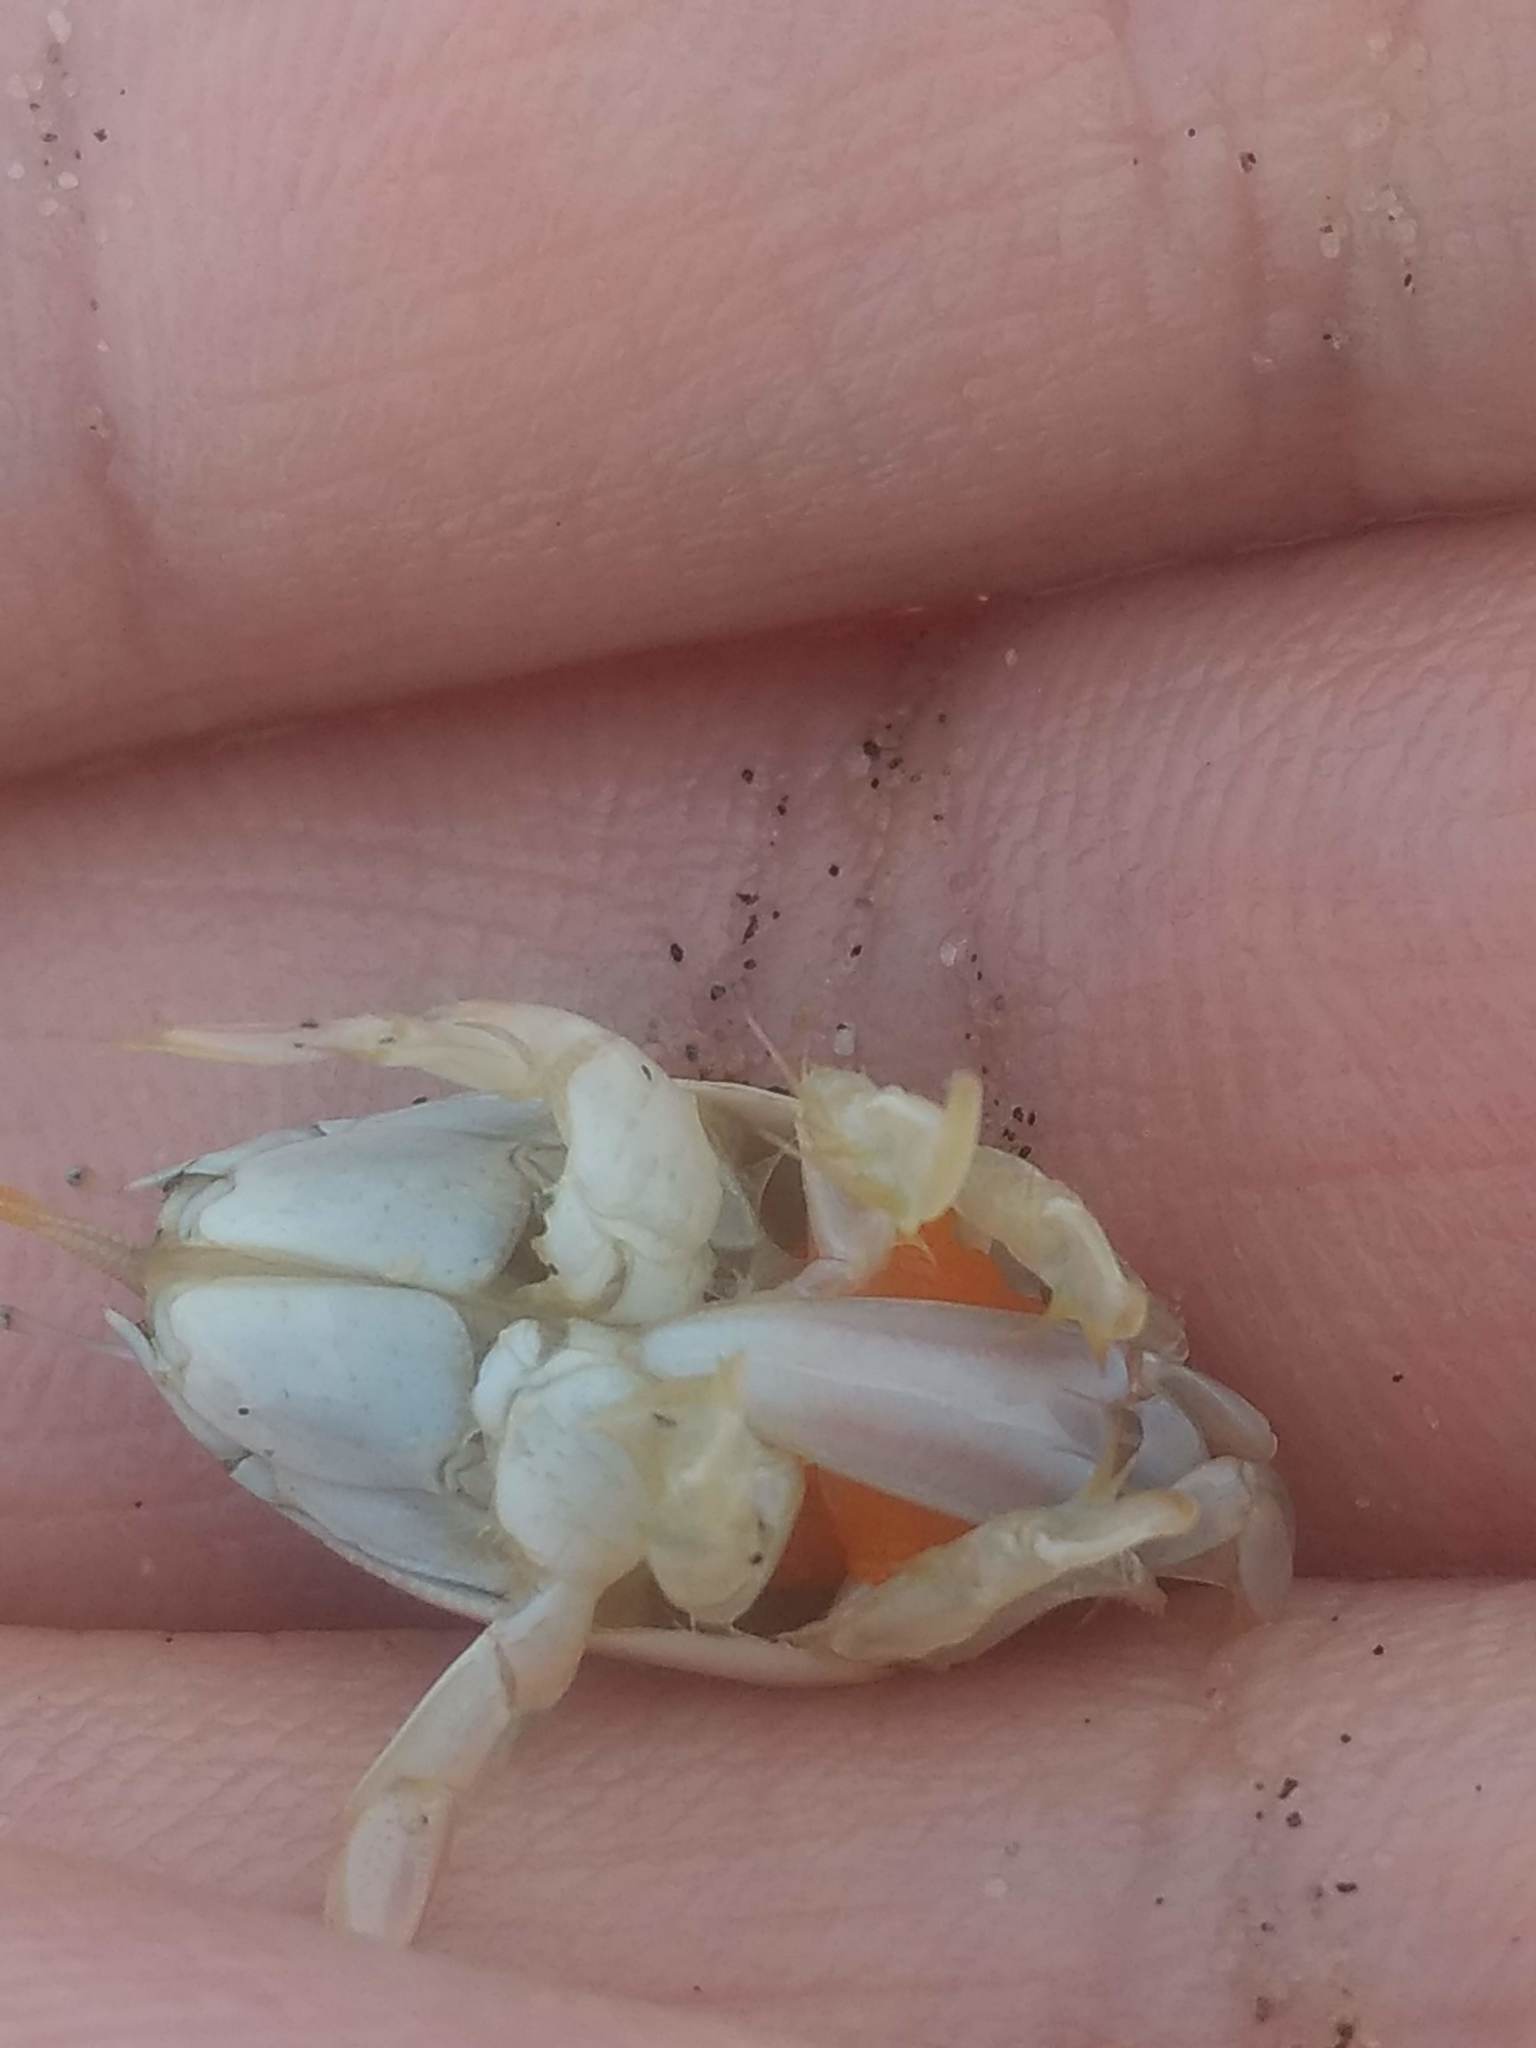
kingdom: Animalia
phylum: Arthropoda
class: Malacostraca
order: Decapoda
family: Hippidae
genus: Emerita
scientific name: Emerita analoga
